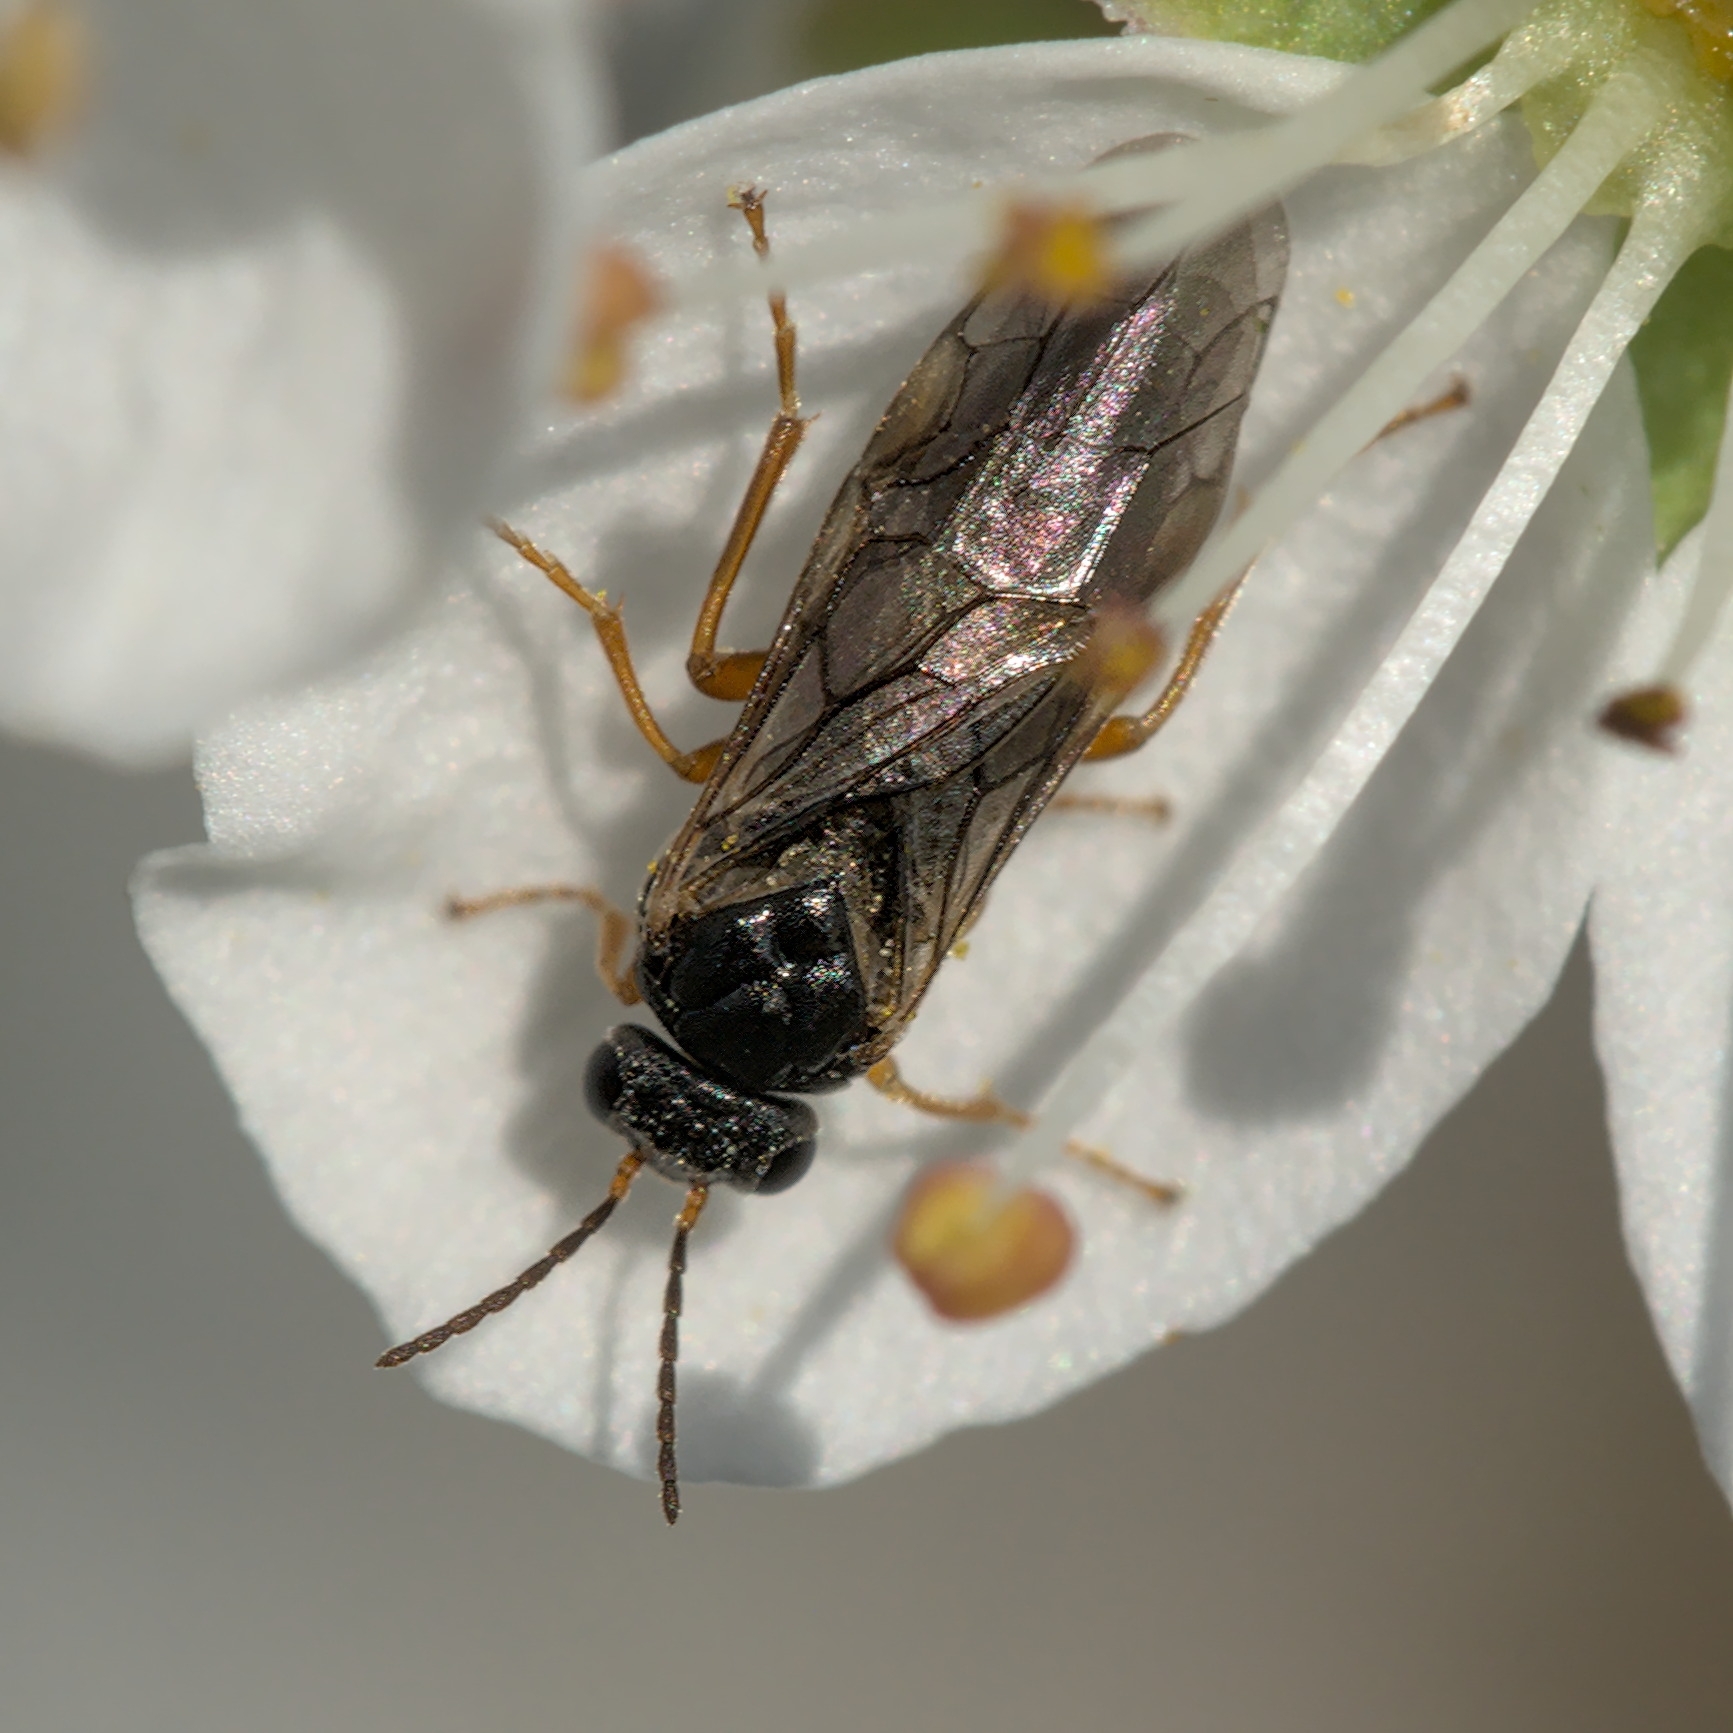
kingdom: Animalia
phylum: Arthropoda
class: Insecta
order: Hymenoptera
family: Tenthredinidae
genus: Hoplocampa
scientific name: Hoplocampa fulvicornis
